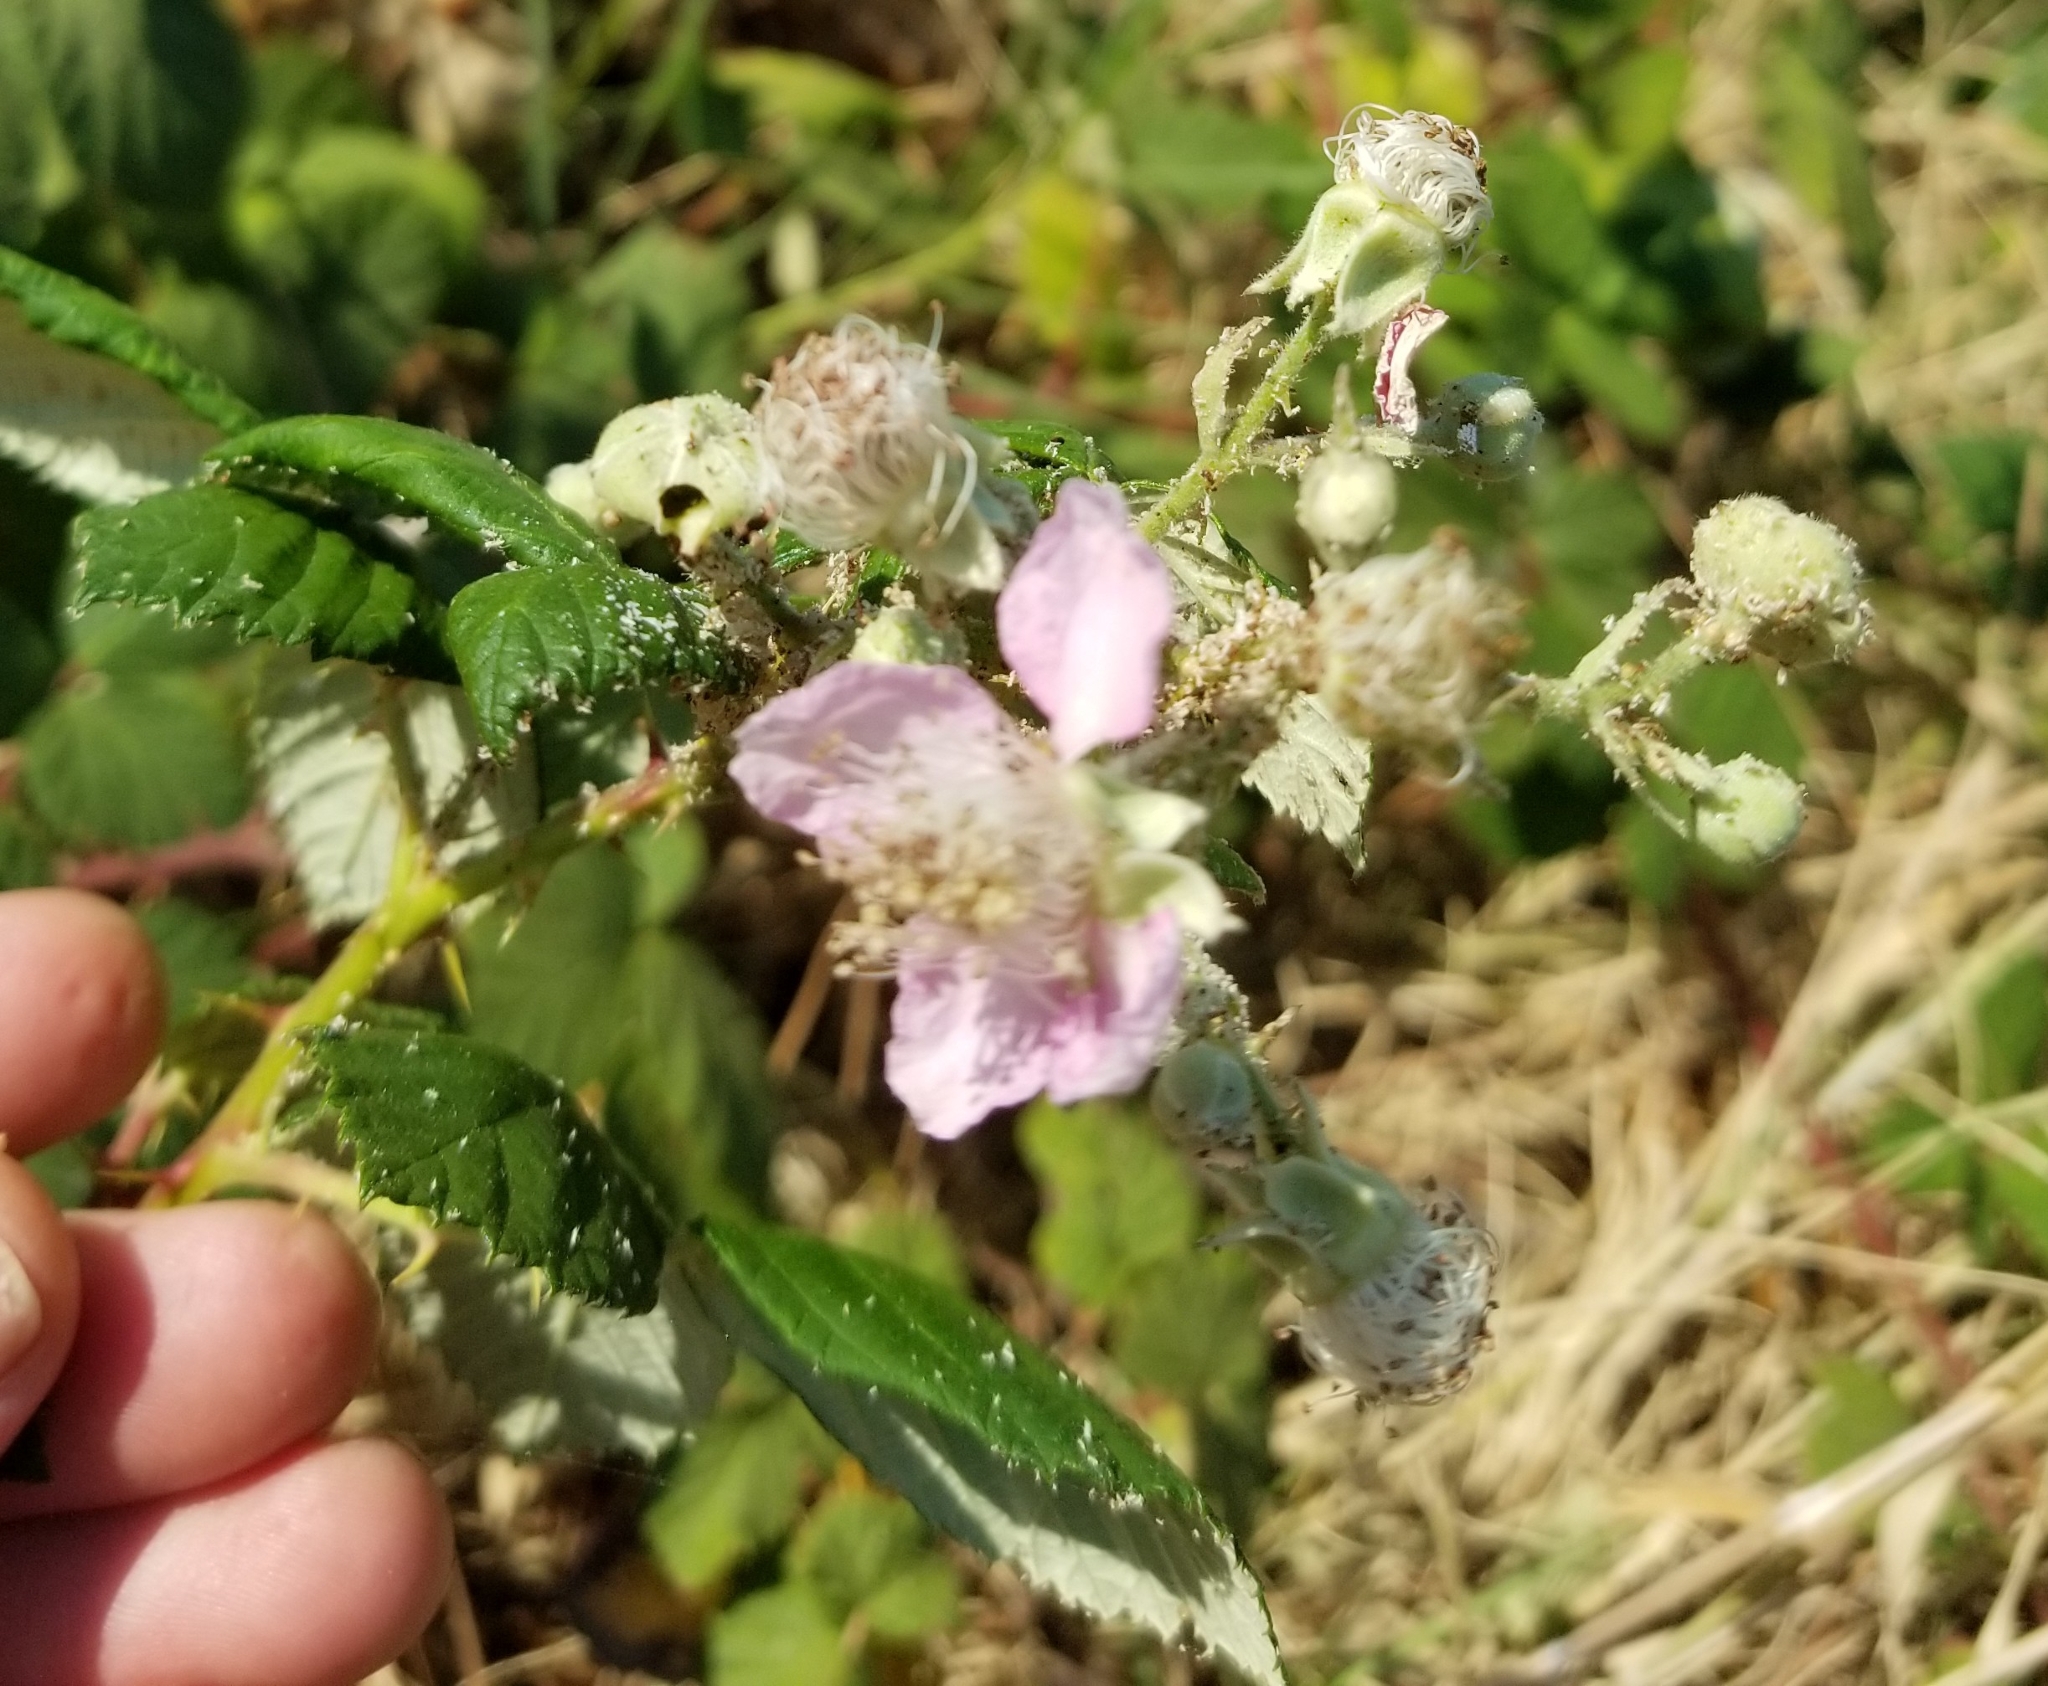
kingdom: Plantae
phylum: Tracheophyta
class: Magnoliopsida
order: Rosales
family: Rosaceae
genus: Rubus
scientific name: Rubus armeniacus
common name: Himalayan blackberry
